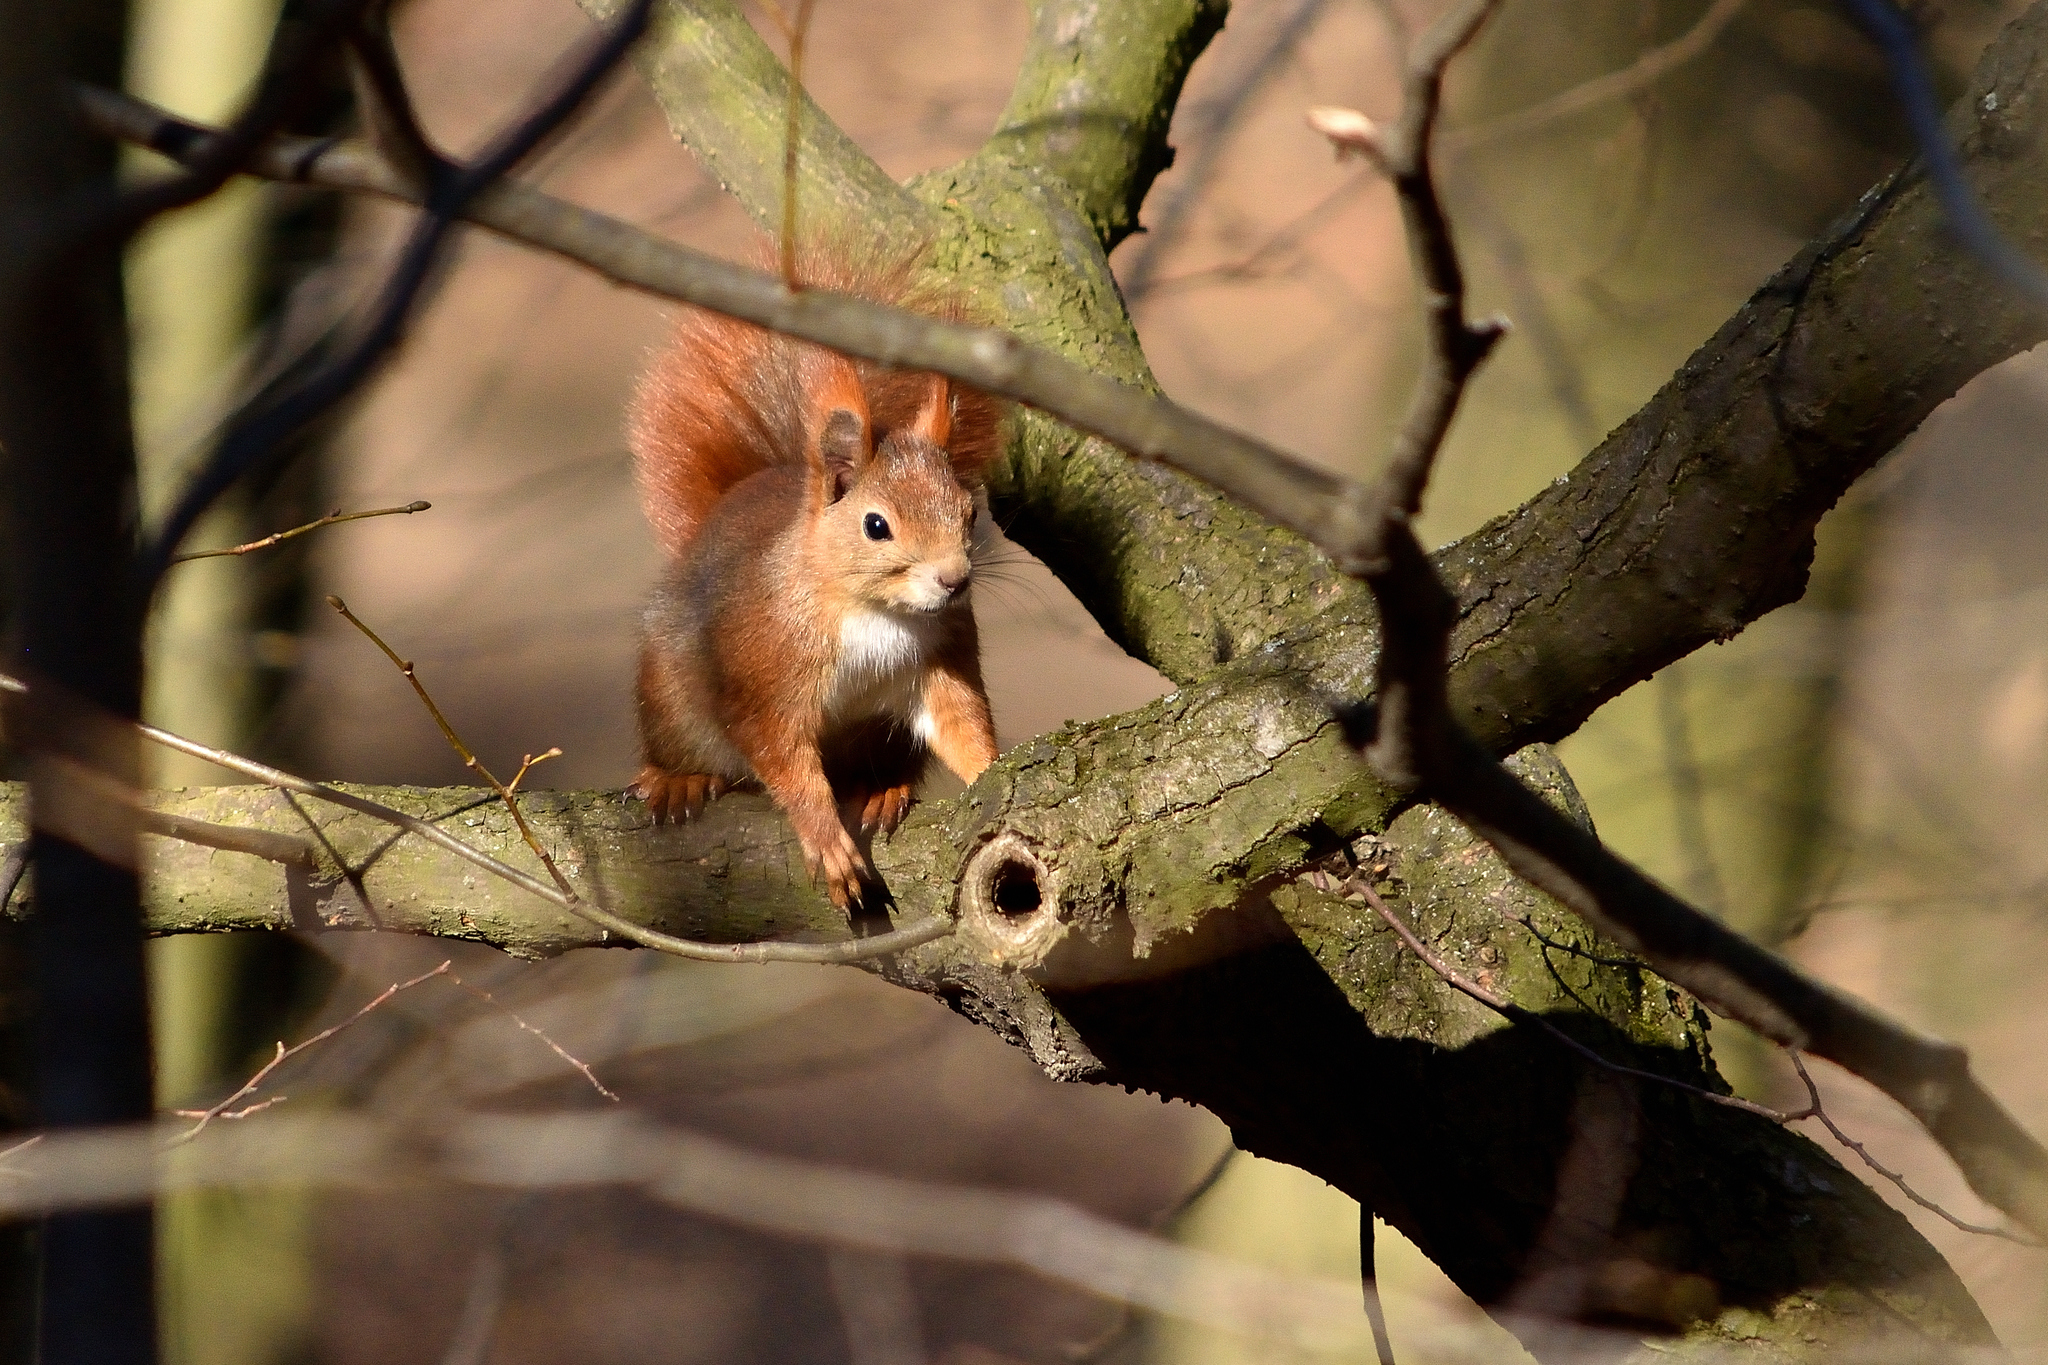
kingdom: Animalia
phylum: Chordata
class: Mammalia
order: Rodentia
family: Sciuridae
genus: Sciurus
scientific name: Sciurus vulgaris
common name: Eurasian red squirrel
